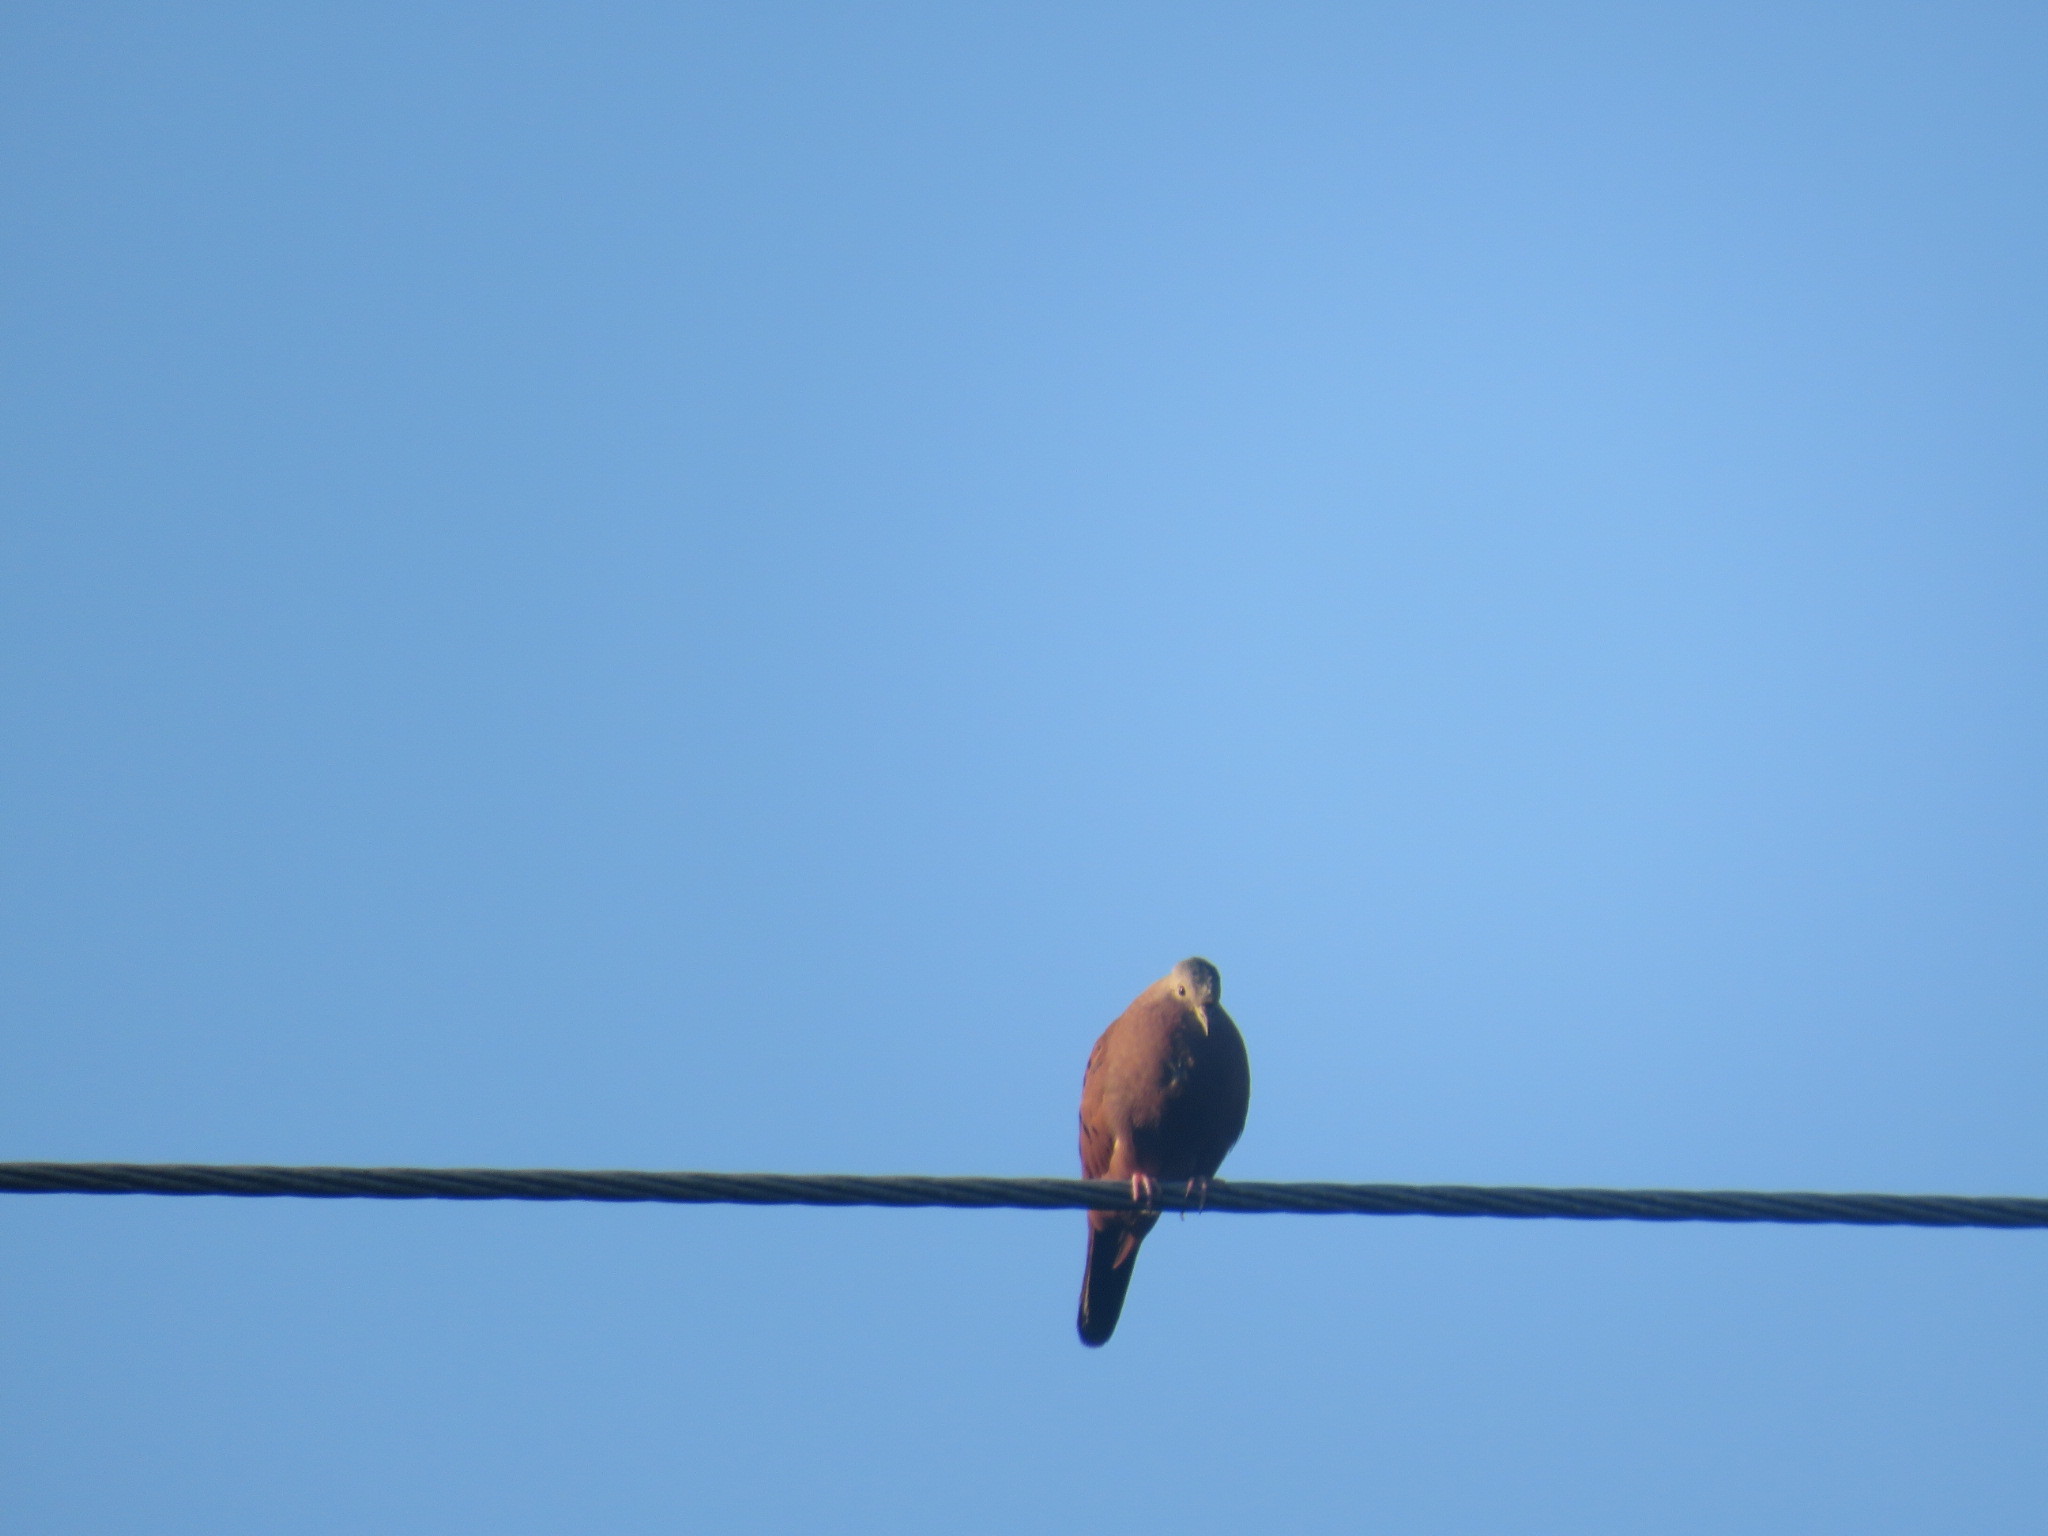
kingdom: Animalia
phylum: Chordata
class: Aves
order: Columbiformes
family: Columbidae
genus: Columbina
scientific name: Columbina talpacoti
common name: Ruddy ground dove
